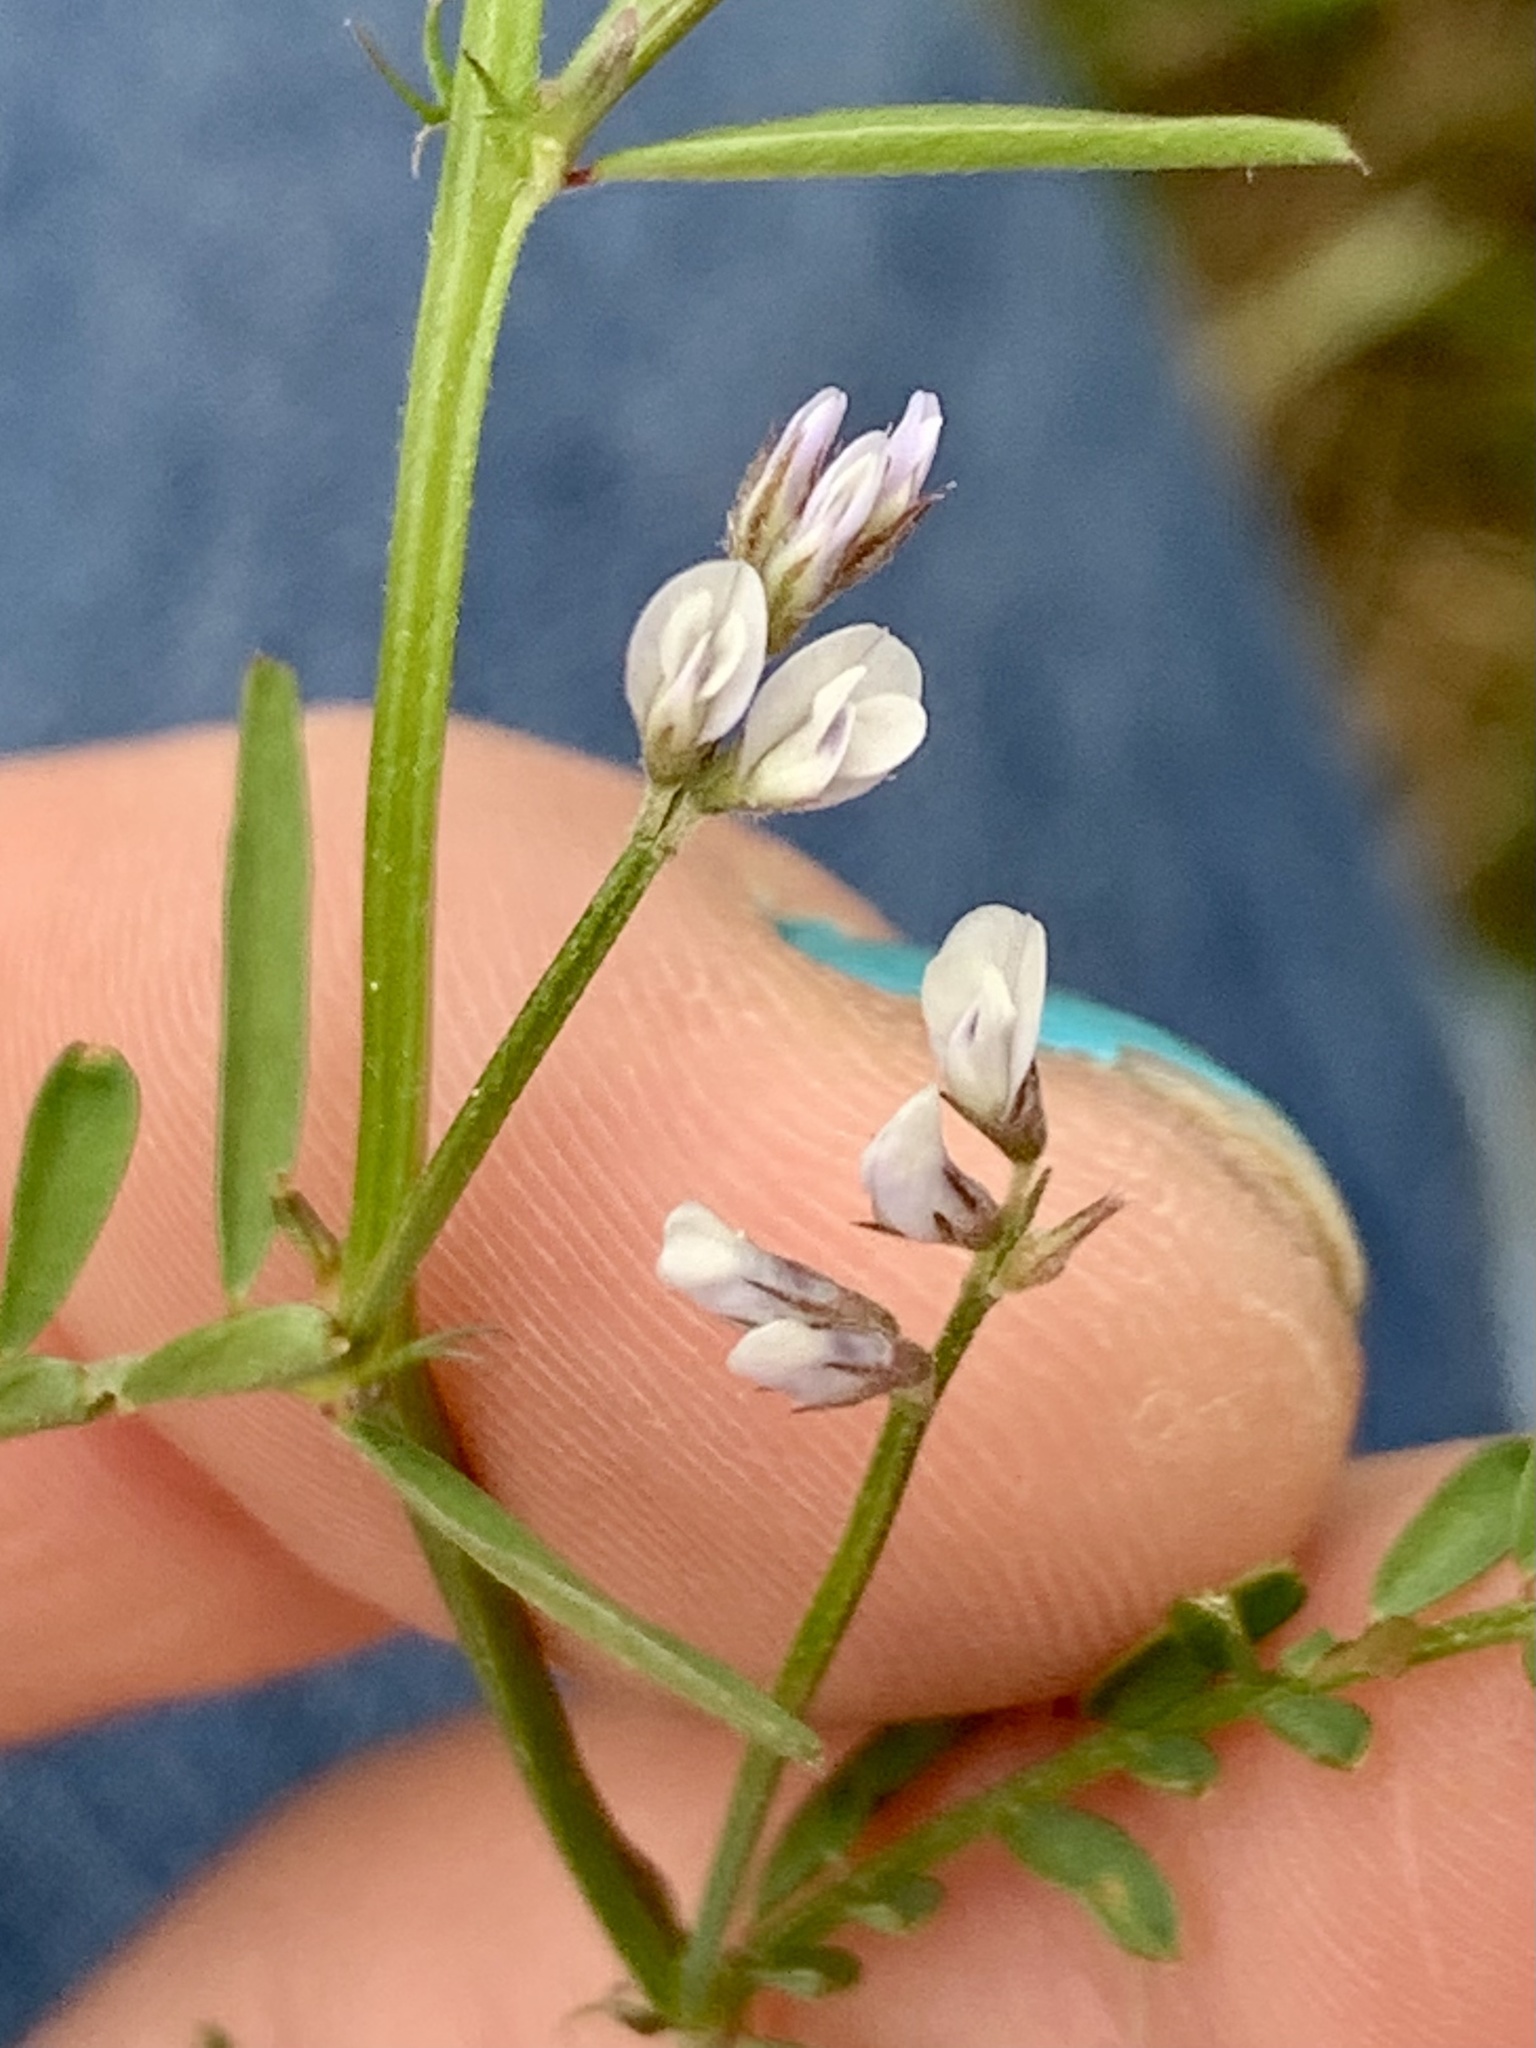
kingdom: Plantae
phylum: Tracheophyta
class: Magnoliopsida
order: Fabales
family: Fabaceae
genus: Vicia
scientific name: Vicia hirsuta
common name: Tiny vetch
